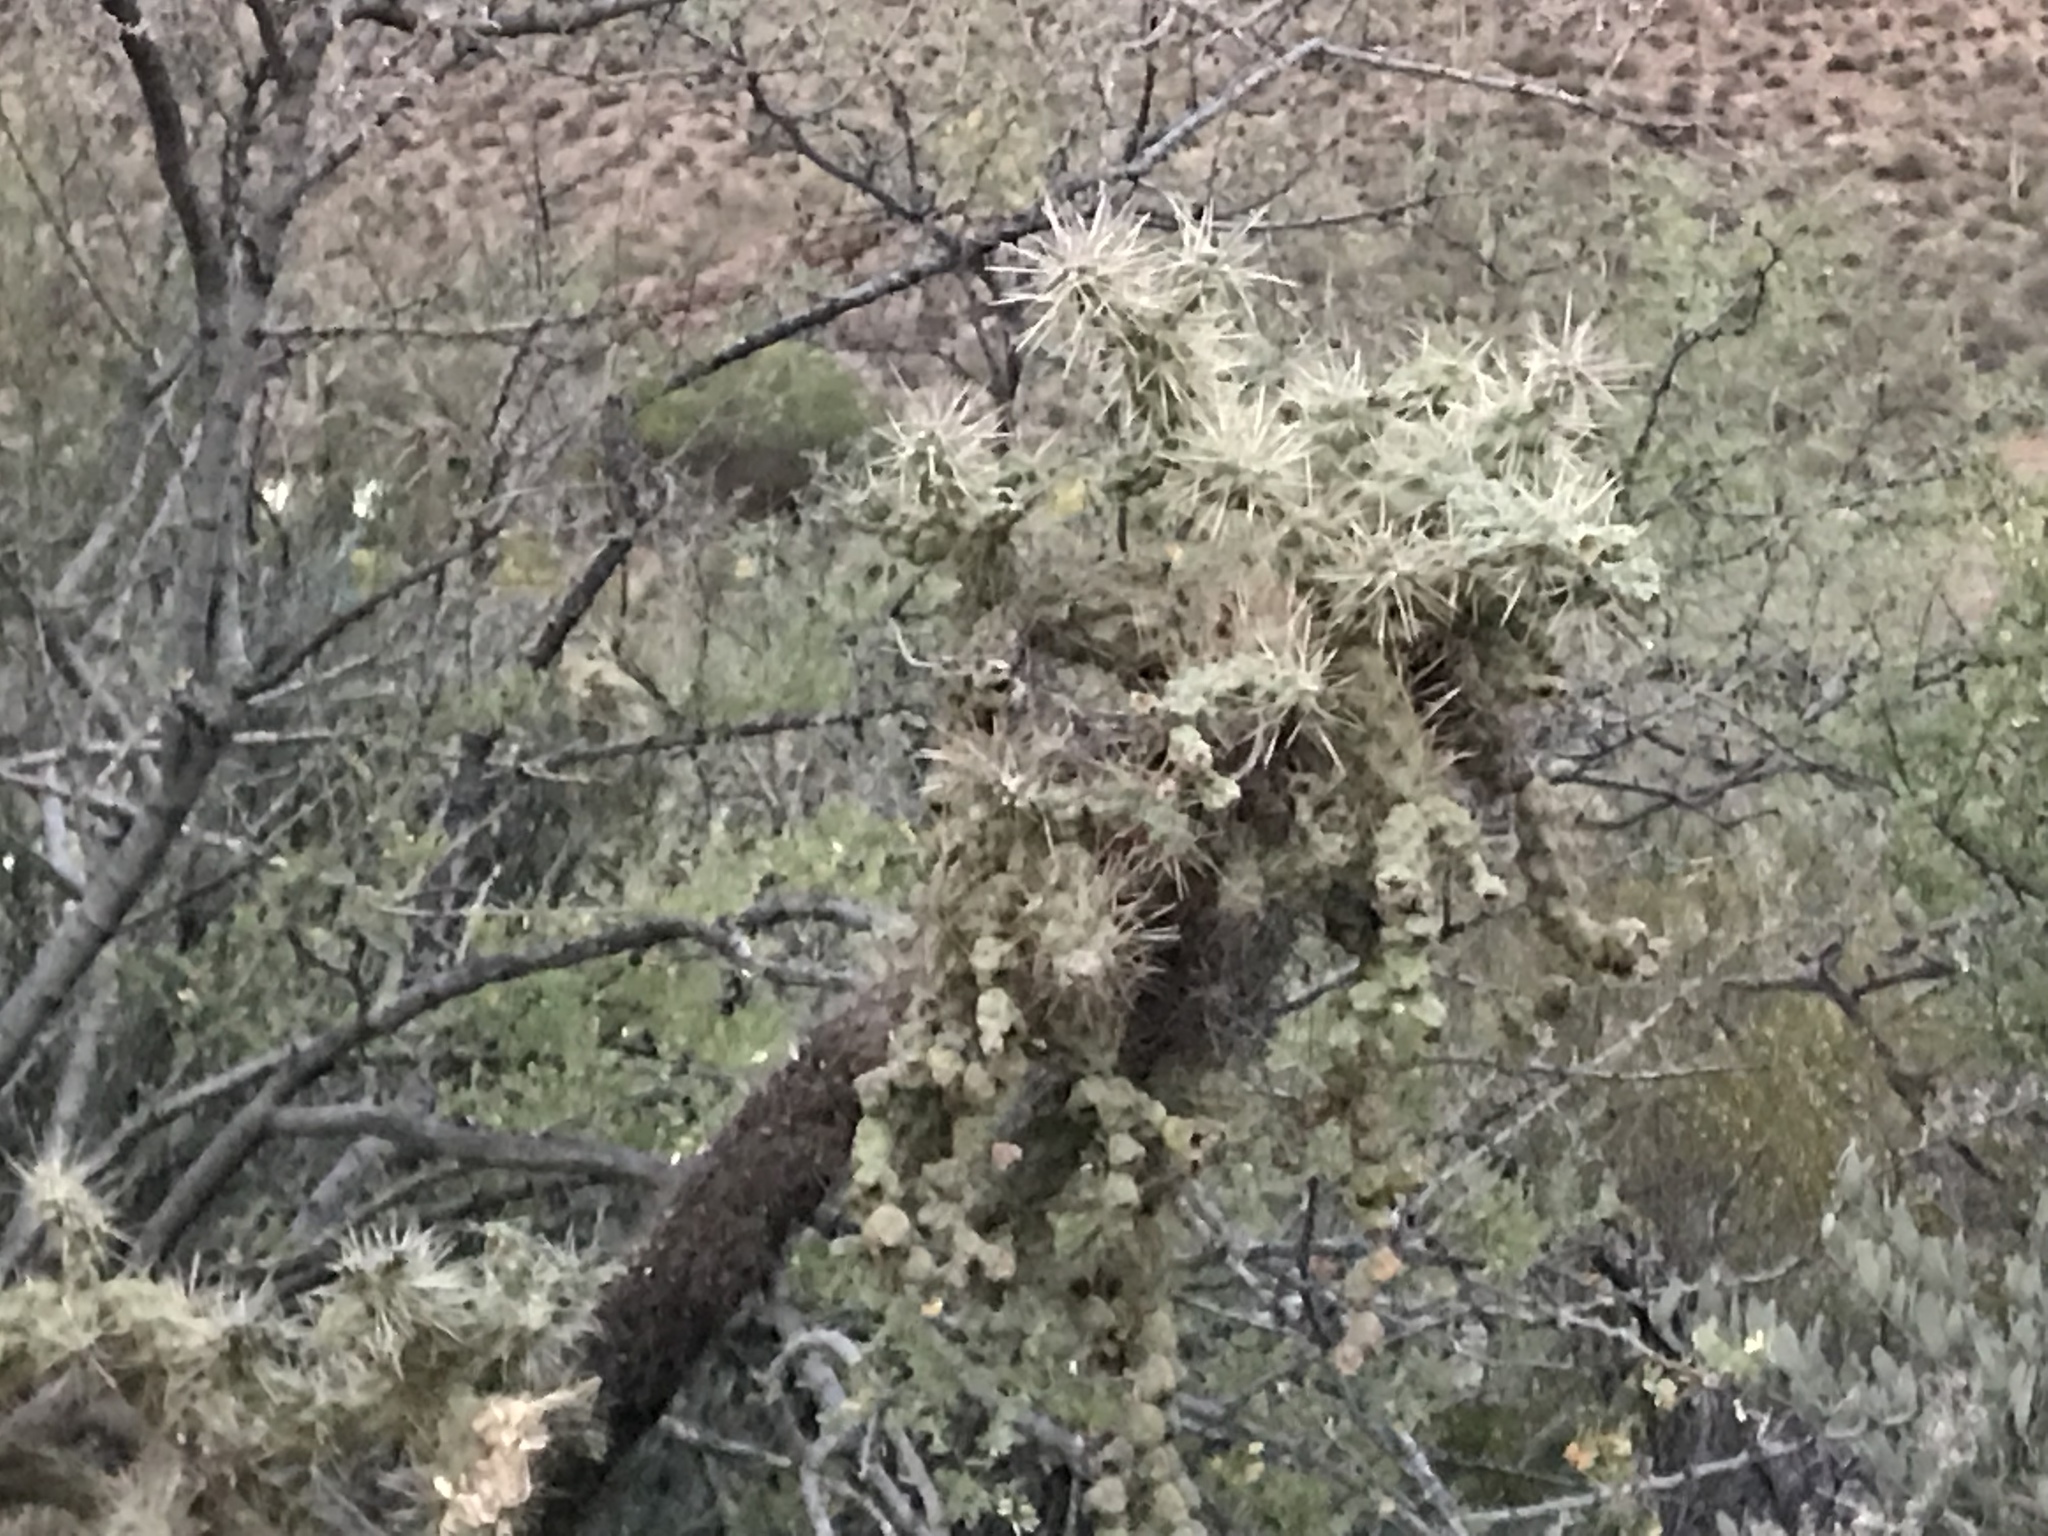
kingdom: Plantae
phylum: Tracheophyta
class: Magnoliopsida
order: Caryophyllales
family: Cactaceae
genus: Cylindropuntia
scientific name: Cylindropuntia fulgida
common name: Jumping cholla
